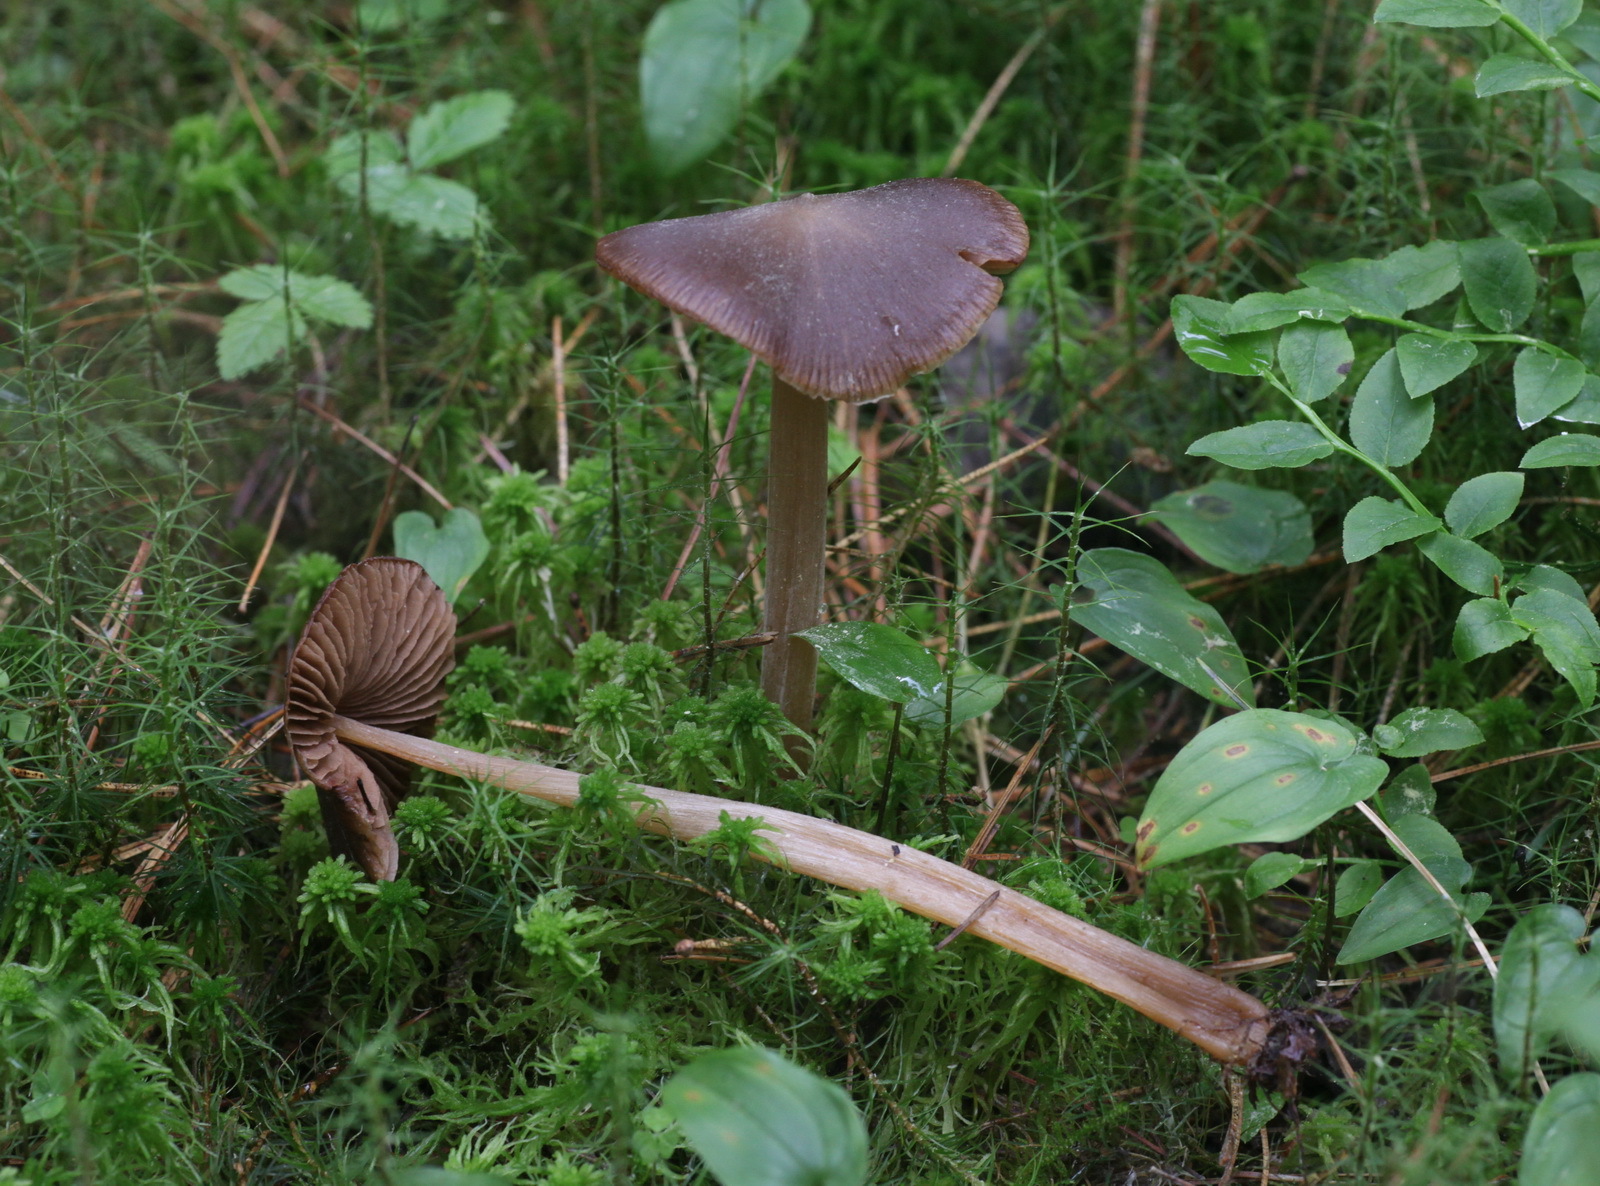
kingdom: Fungi
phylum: Basidiomycota
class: Agaricomycetes
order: Agaricales
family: Entolomataceae
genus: Entoloma
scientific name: Entoloma lanuginosipes
